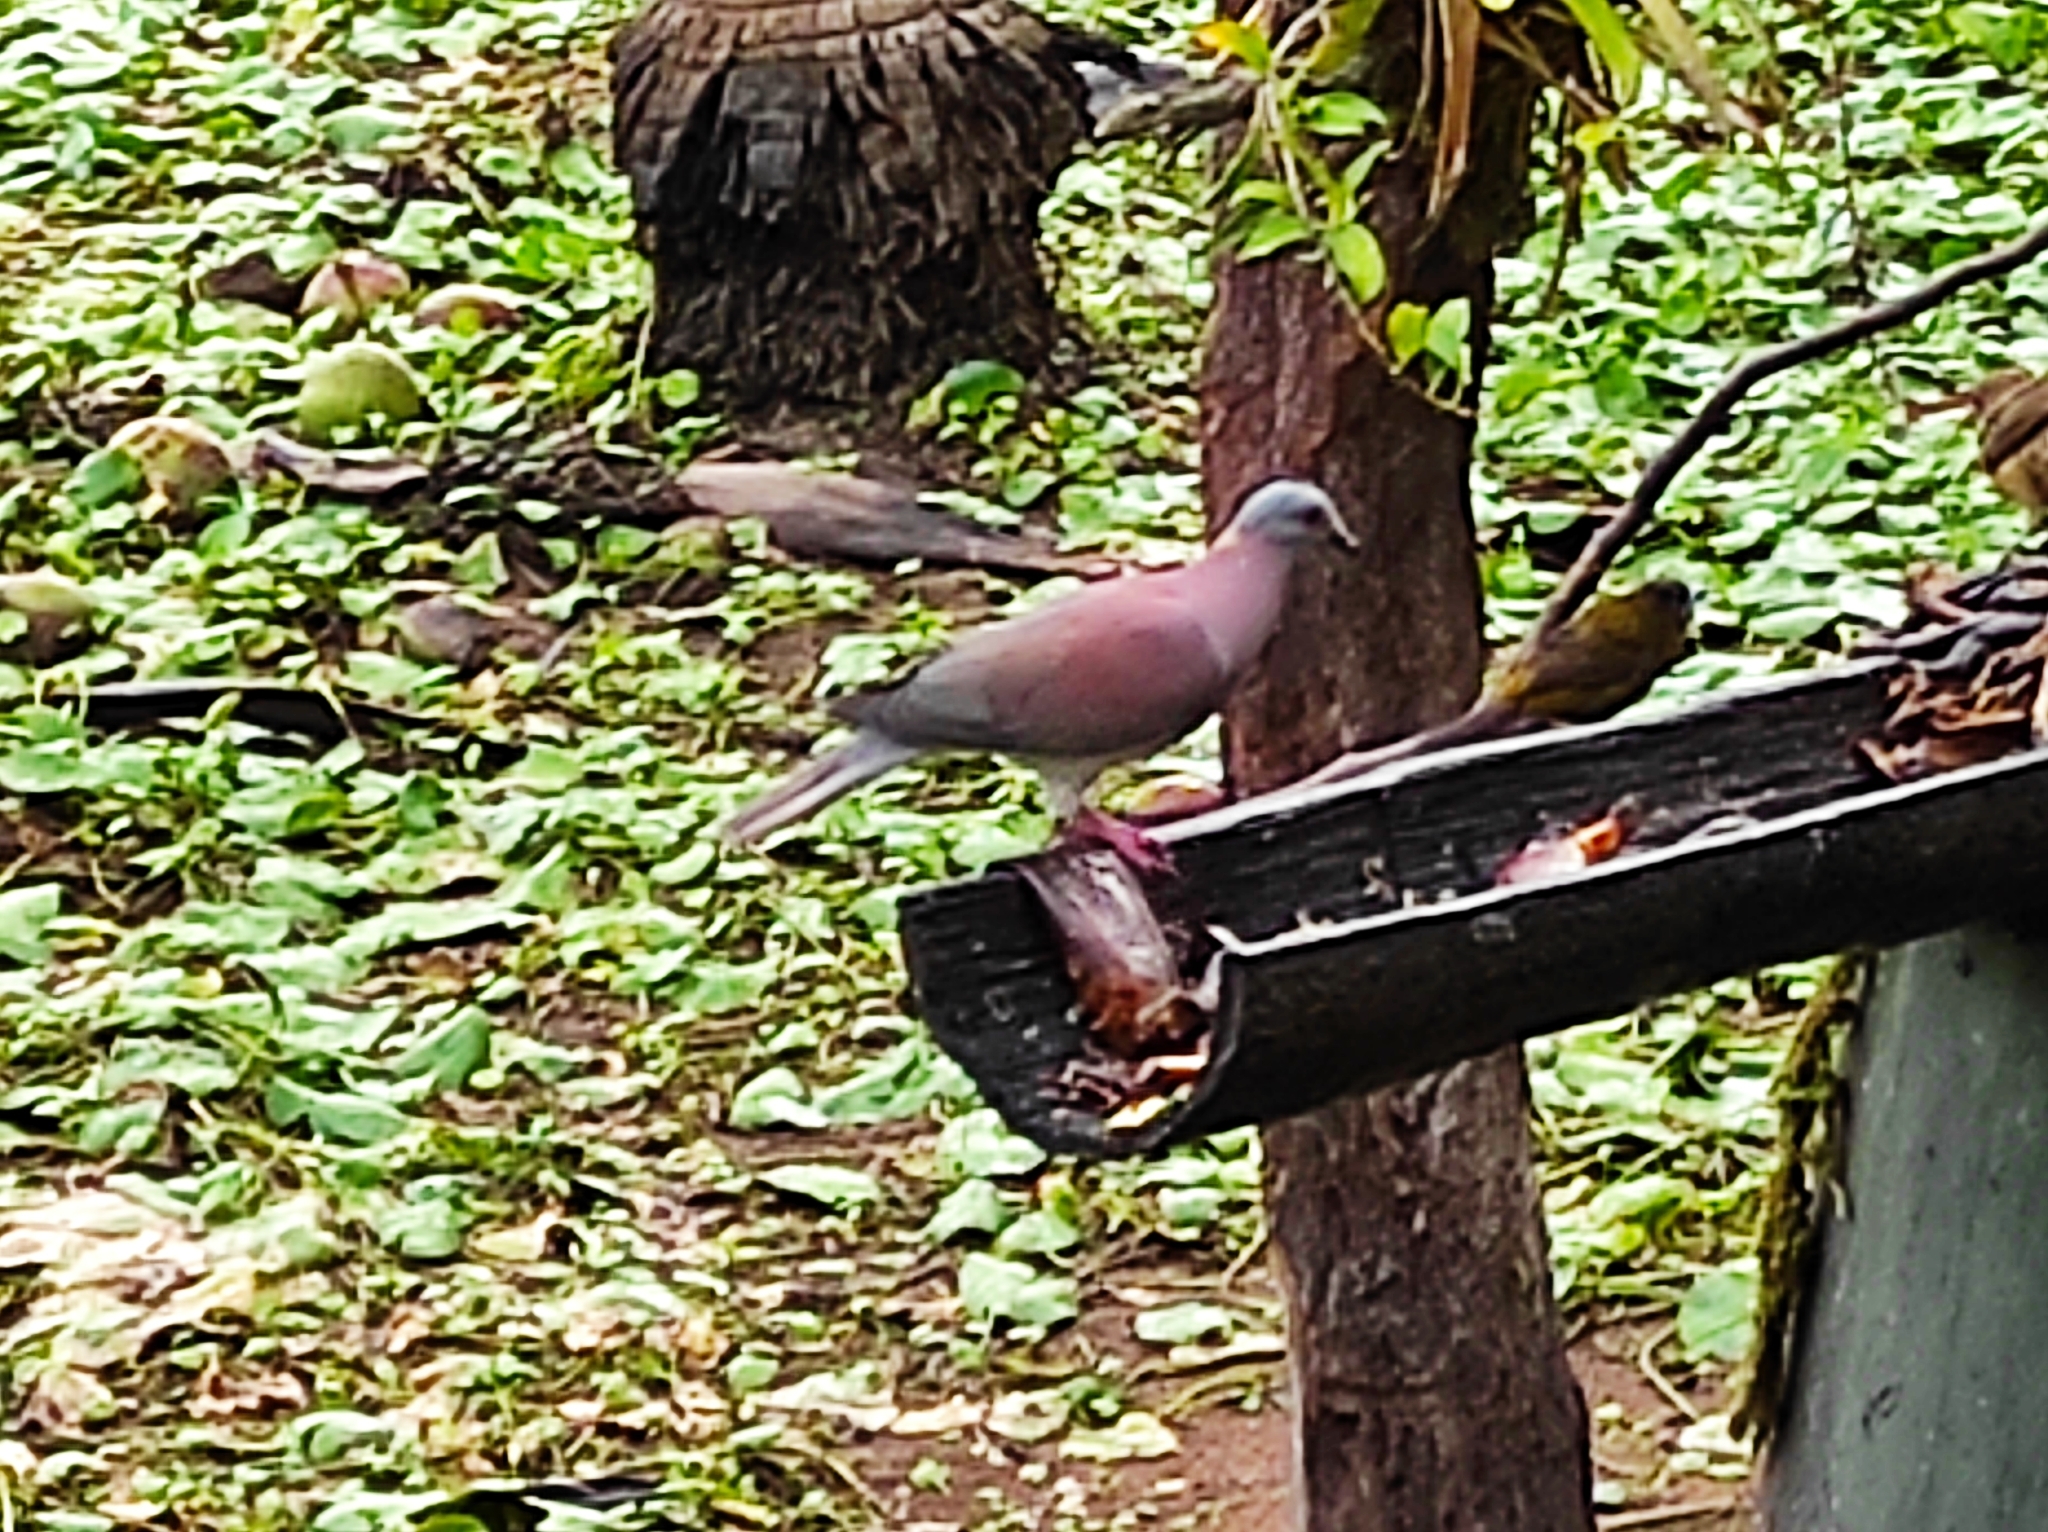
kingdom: Animalia
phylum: Chordata
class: Aves
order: Columbiformes
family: Columbidae
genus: Patagioenas
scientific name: Patagioenas cayennensis
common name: Pale-vented pigeon
